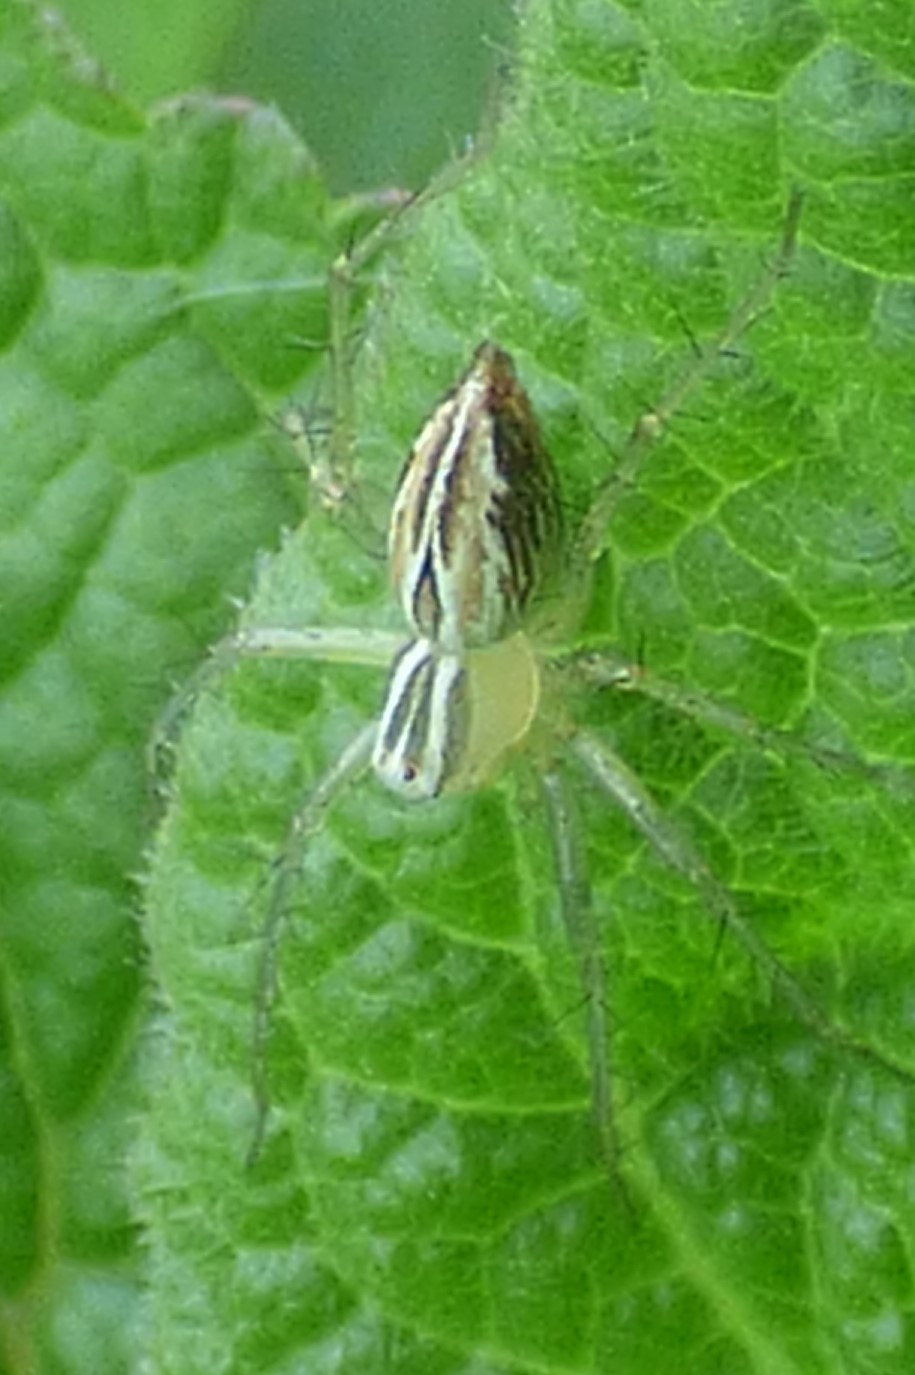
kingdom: Animalia
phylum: Arthropoda
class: Arachnida
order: Araneae
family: Oxyopidae
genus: Oxyopes
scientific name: Oxyopes salticus
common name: Lynx spiders
